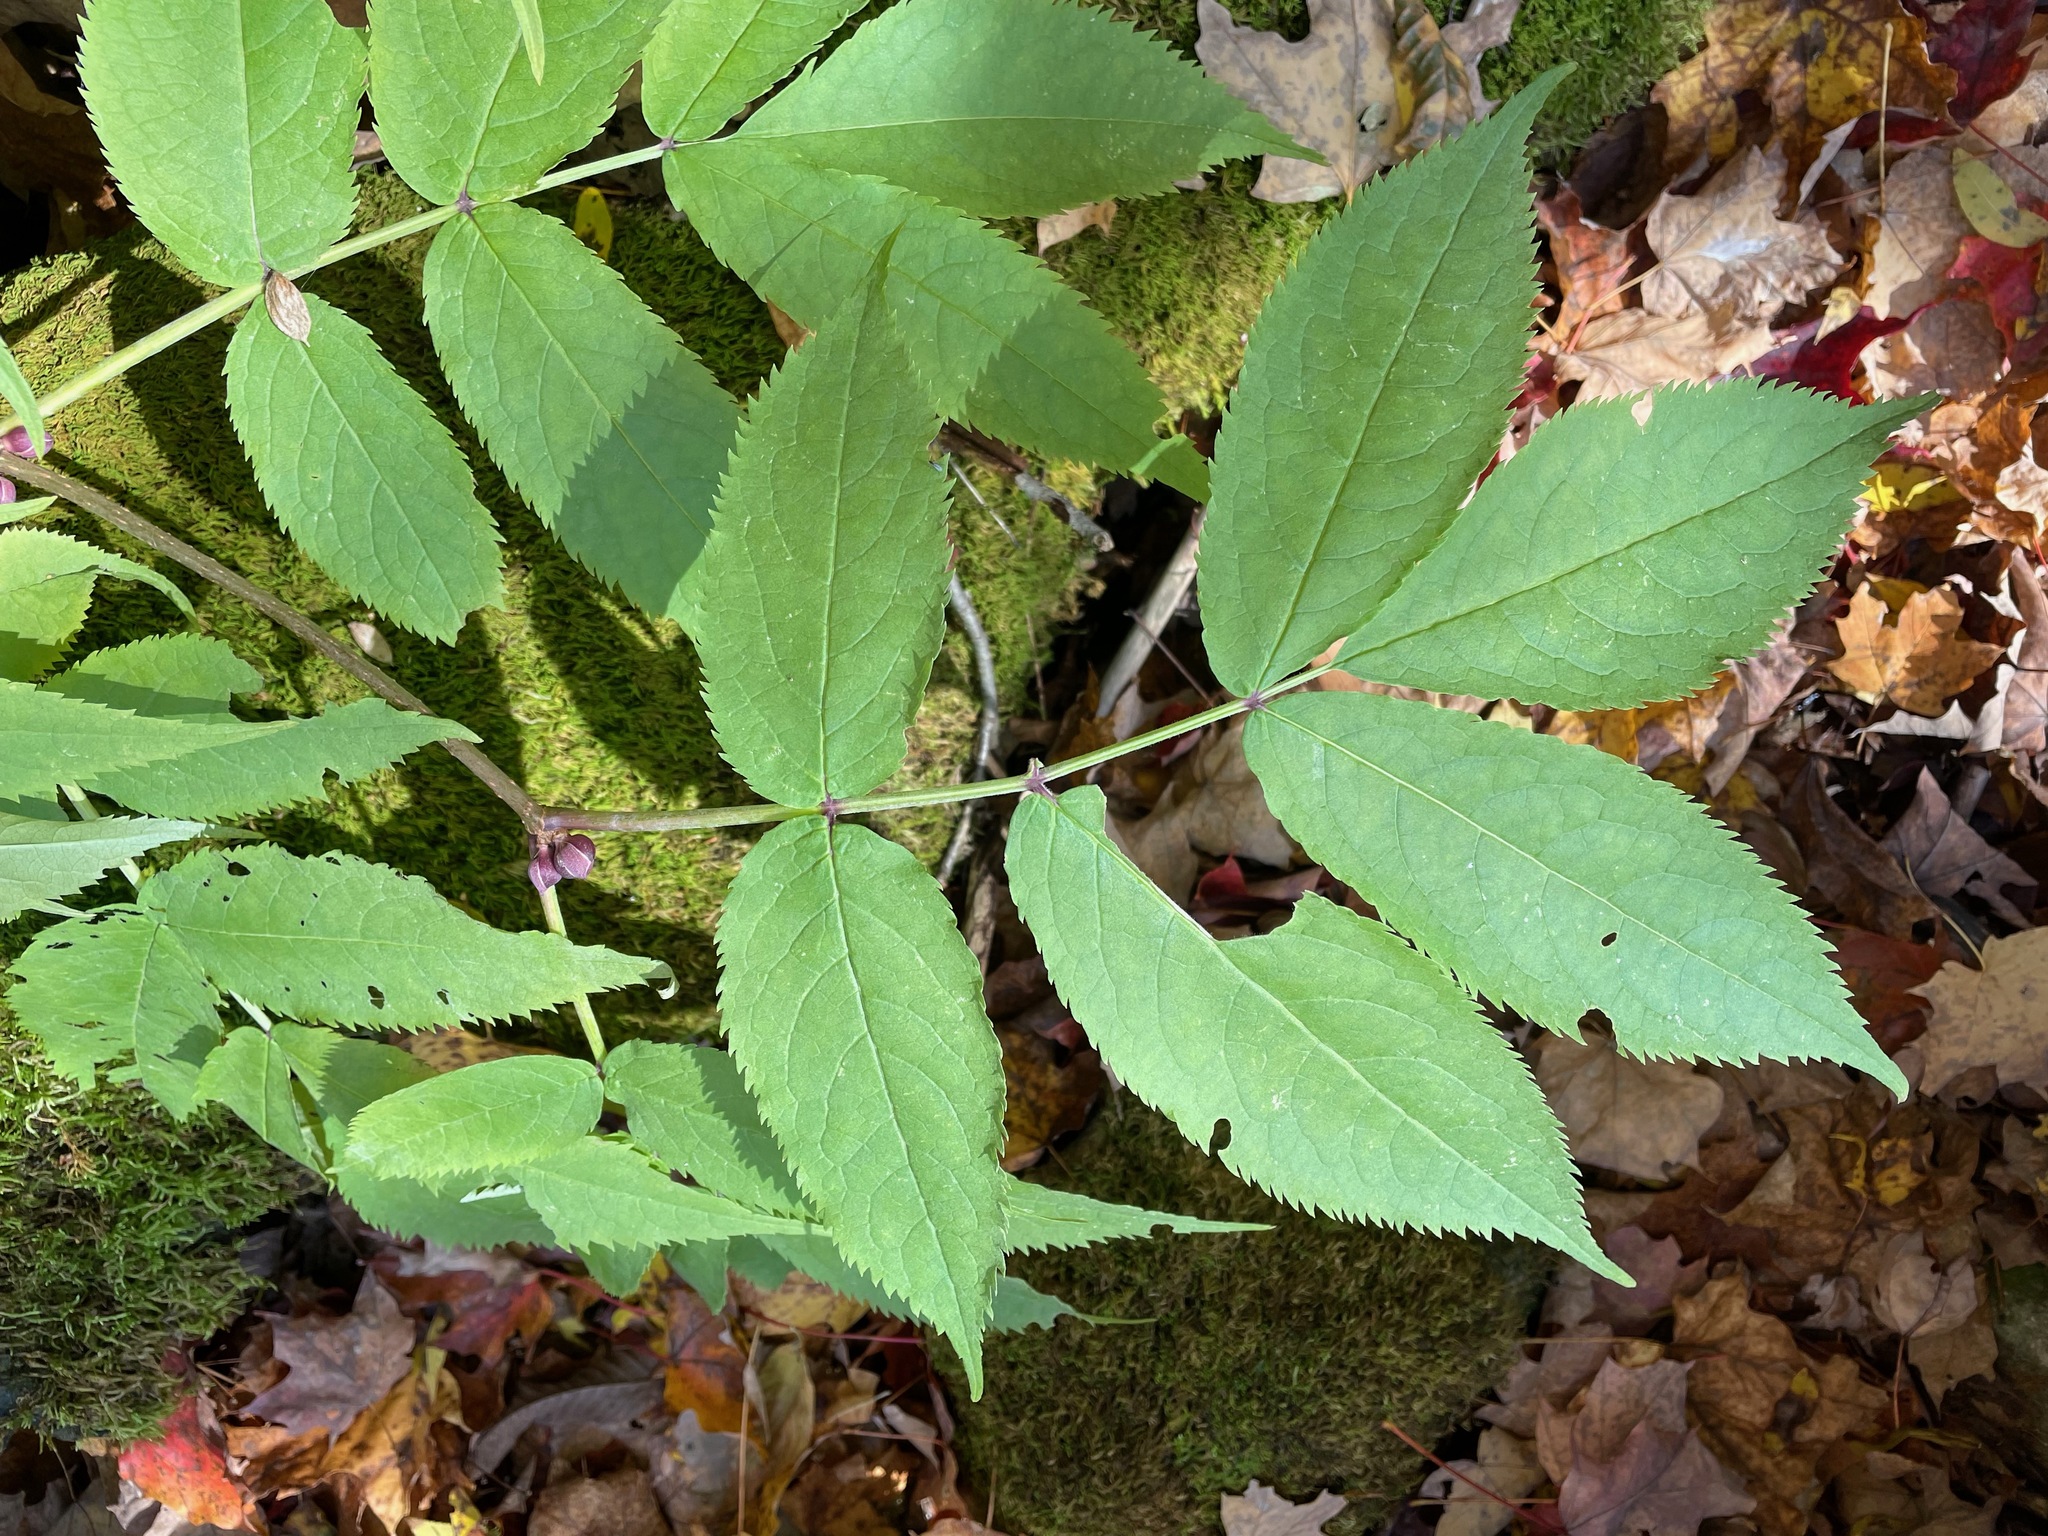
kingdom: Plantae
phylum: Tracheophyta
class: Magnoliopsida
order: Dipsacales
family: Viburnaceae
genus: Sambucus
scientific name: Sambucus racemosa
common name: Red-berried elder
